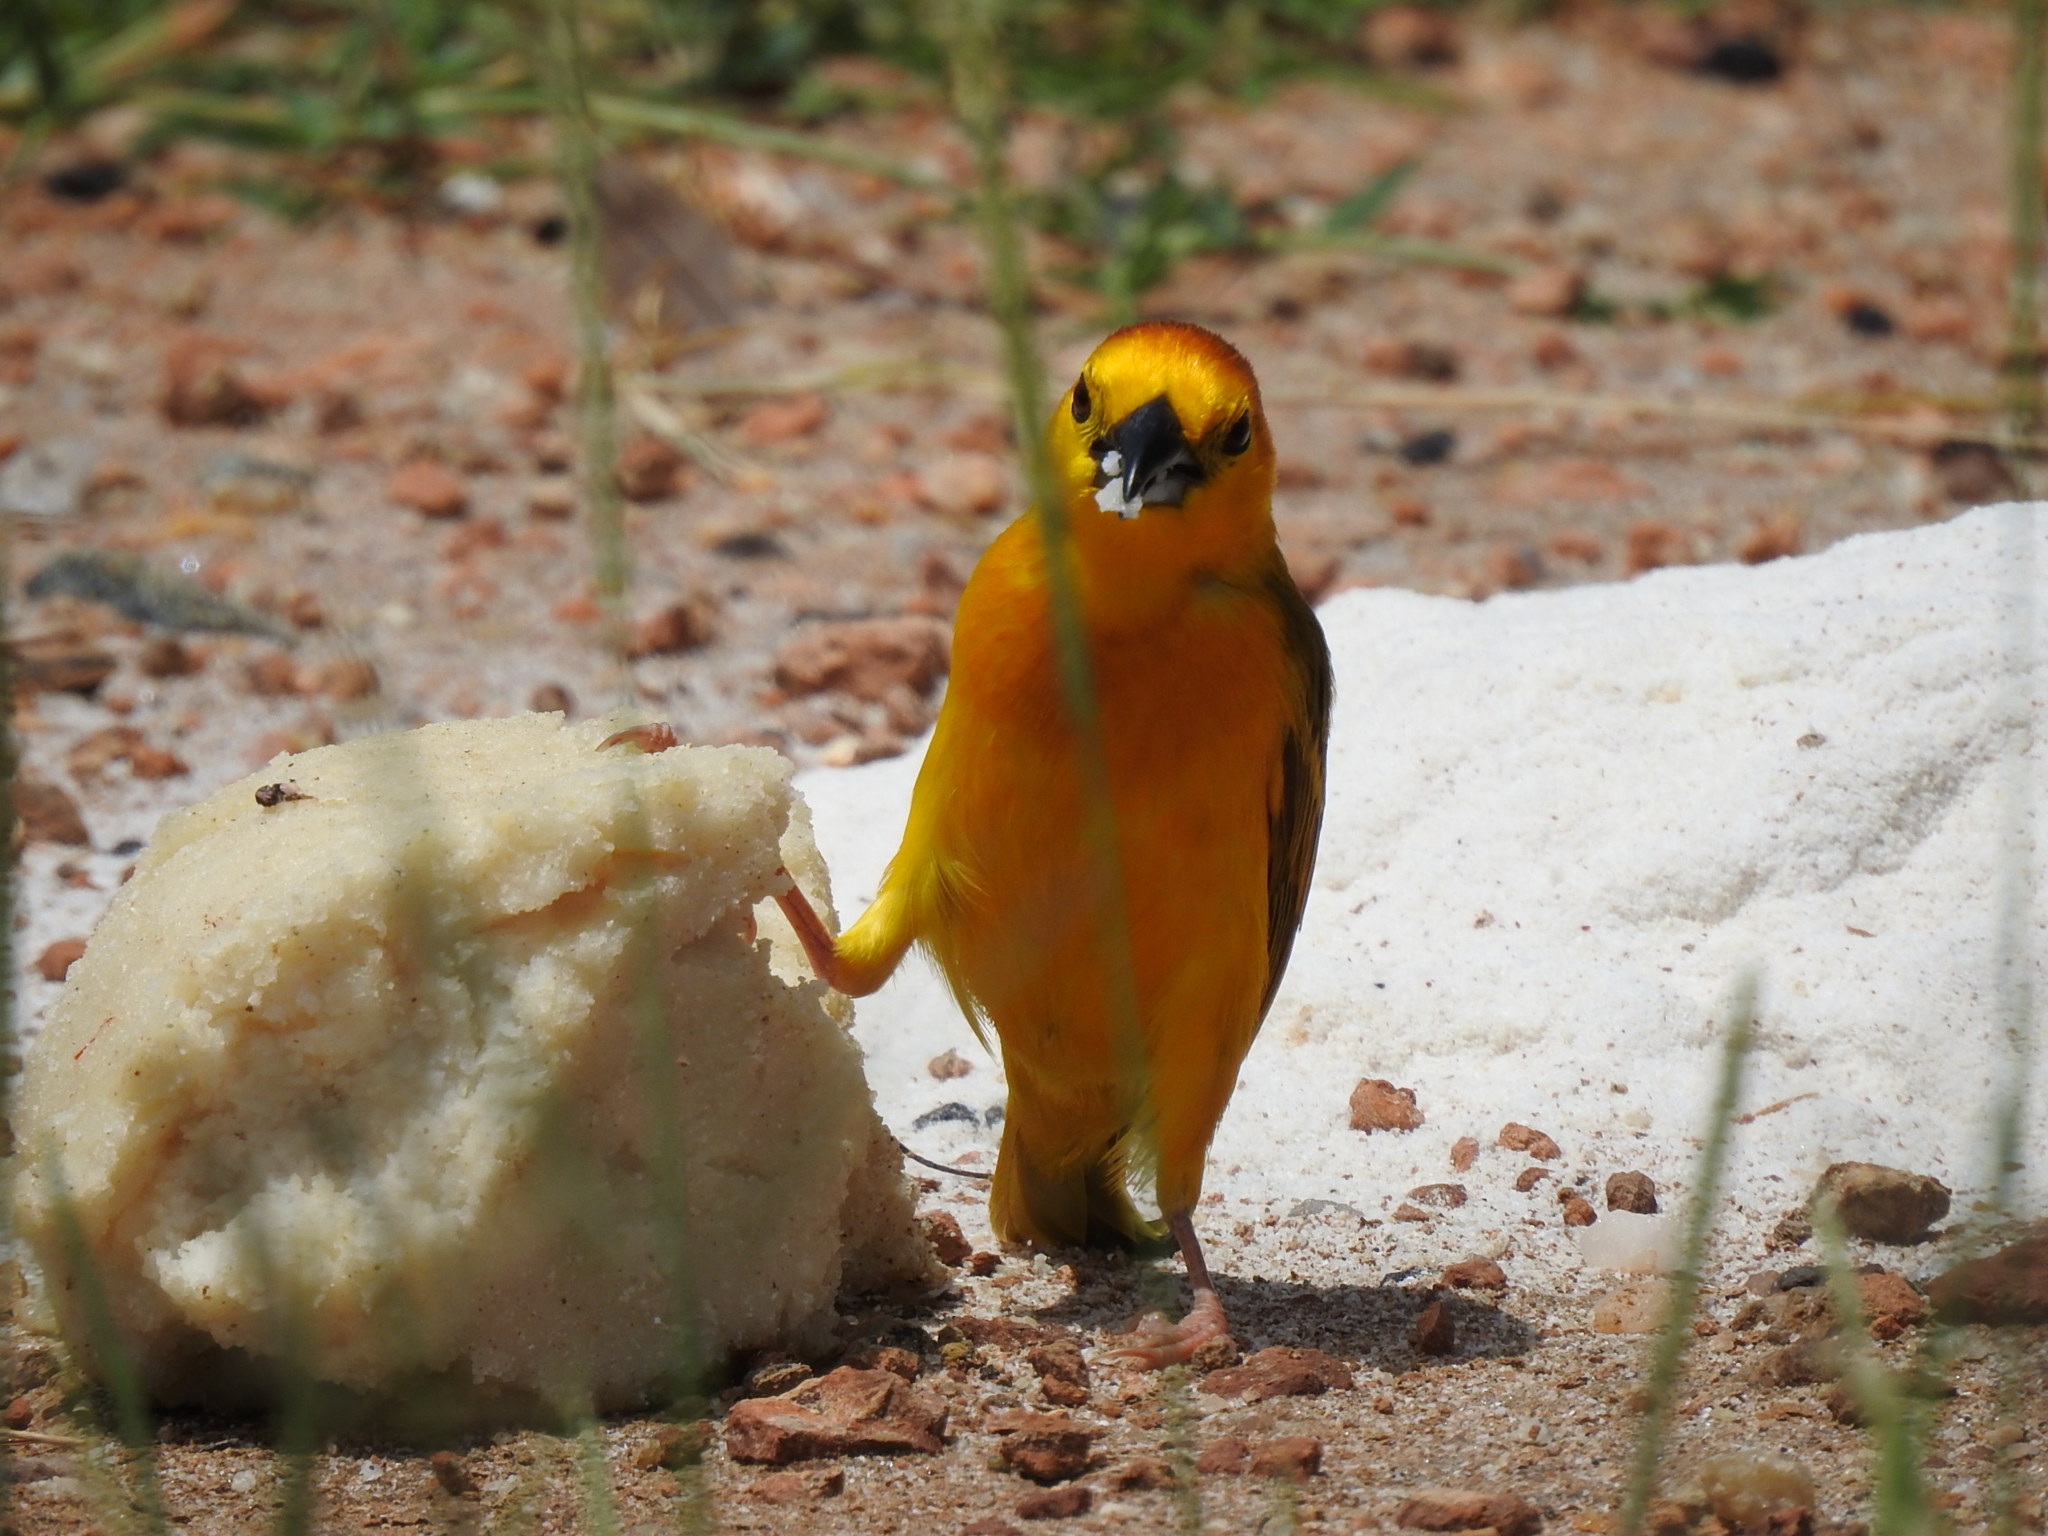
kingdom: Animalia
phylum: Chordata
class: Aves
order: Passeriformes
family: Ploceidae
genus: Ploceus
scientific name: Ploceus castaneiceps
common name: Taveta weaver
